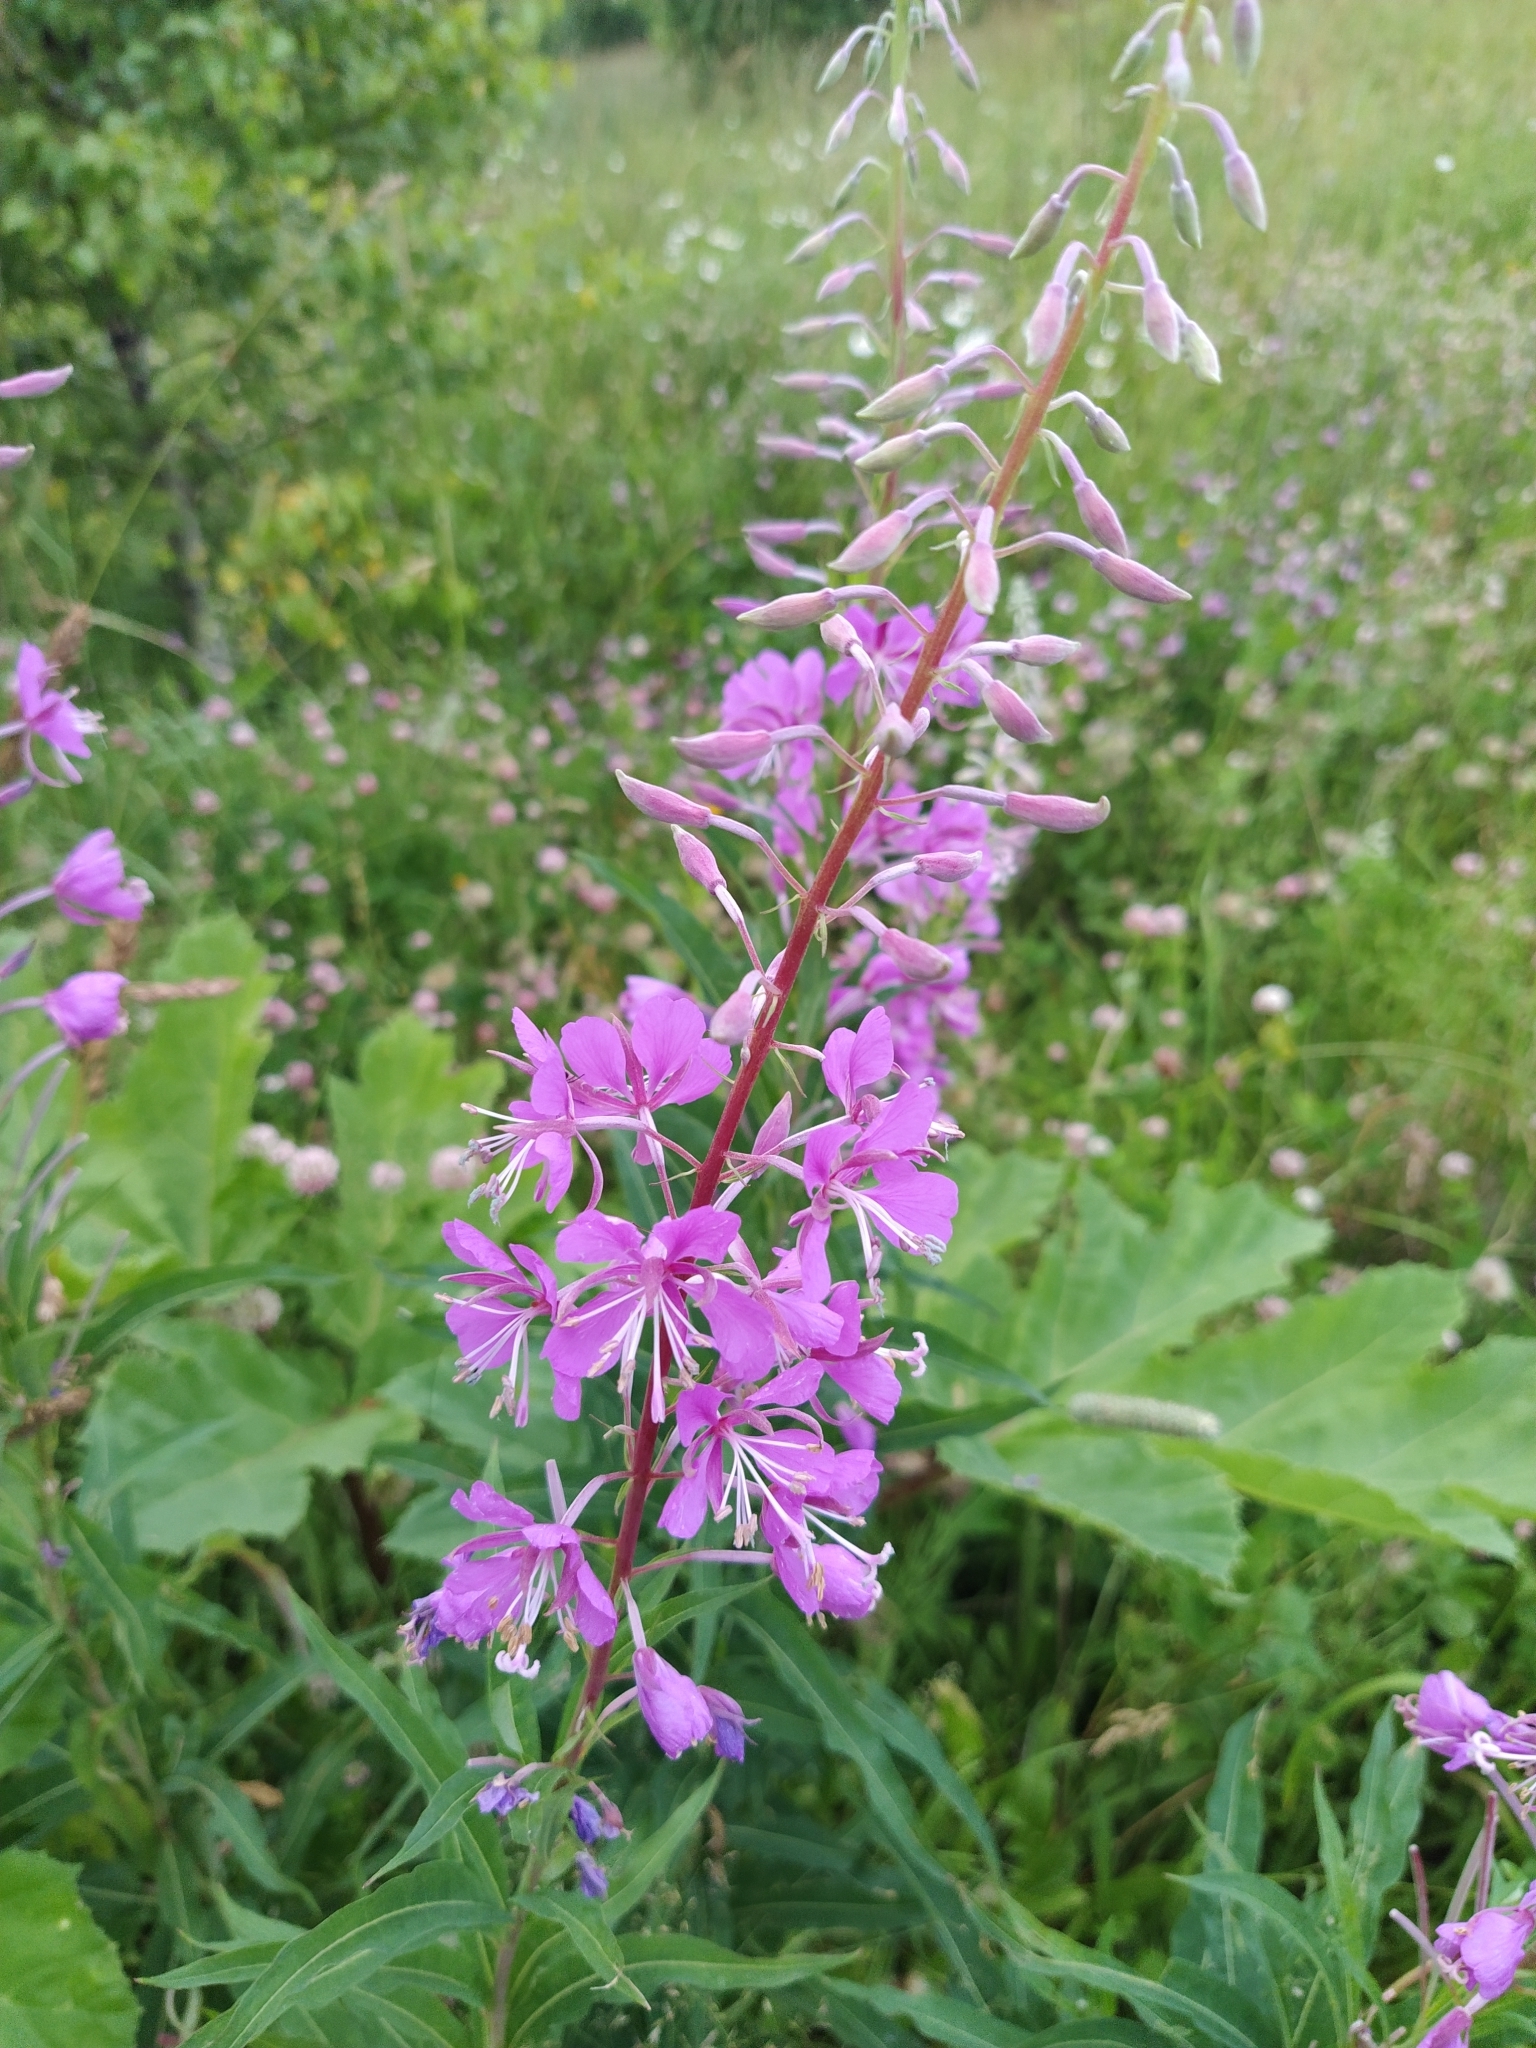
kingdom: Plantae
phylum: Tracheophyta
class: Magnoliopsida
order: Myrtales
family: Onagraceae
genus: Chamaenerion
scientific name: Chamaenerion angustifolium
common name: Fireweed
